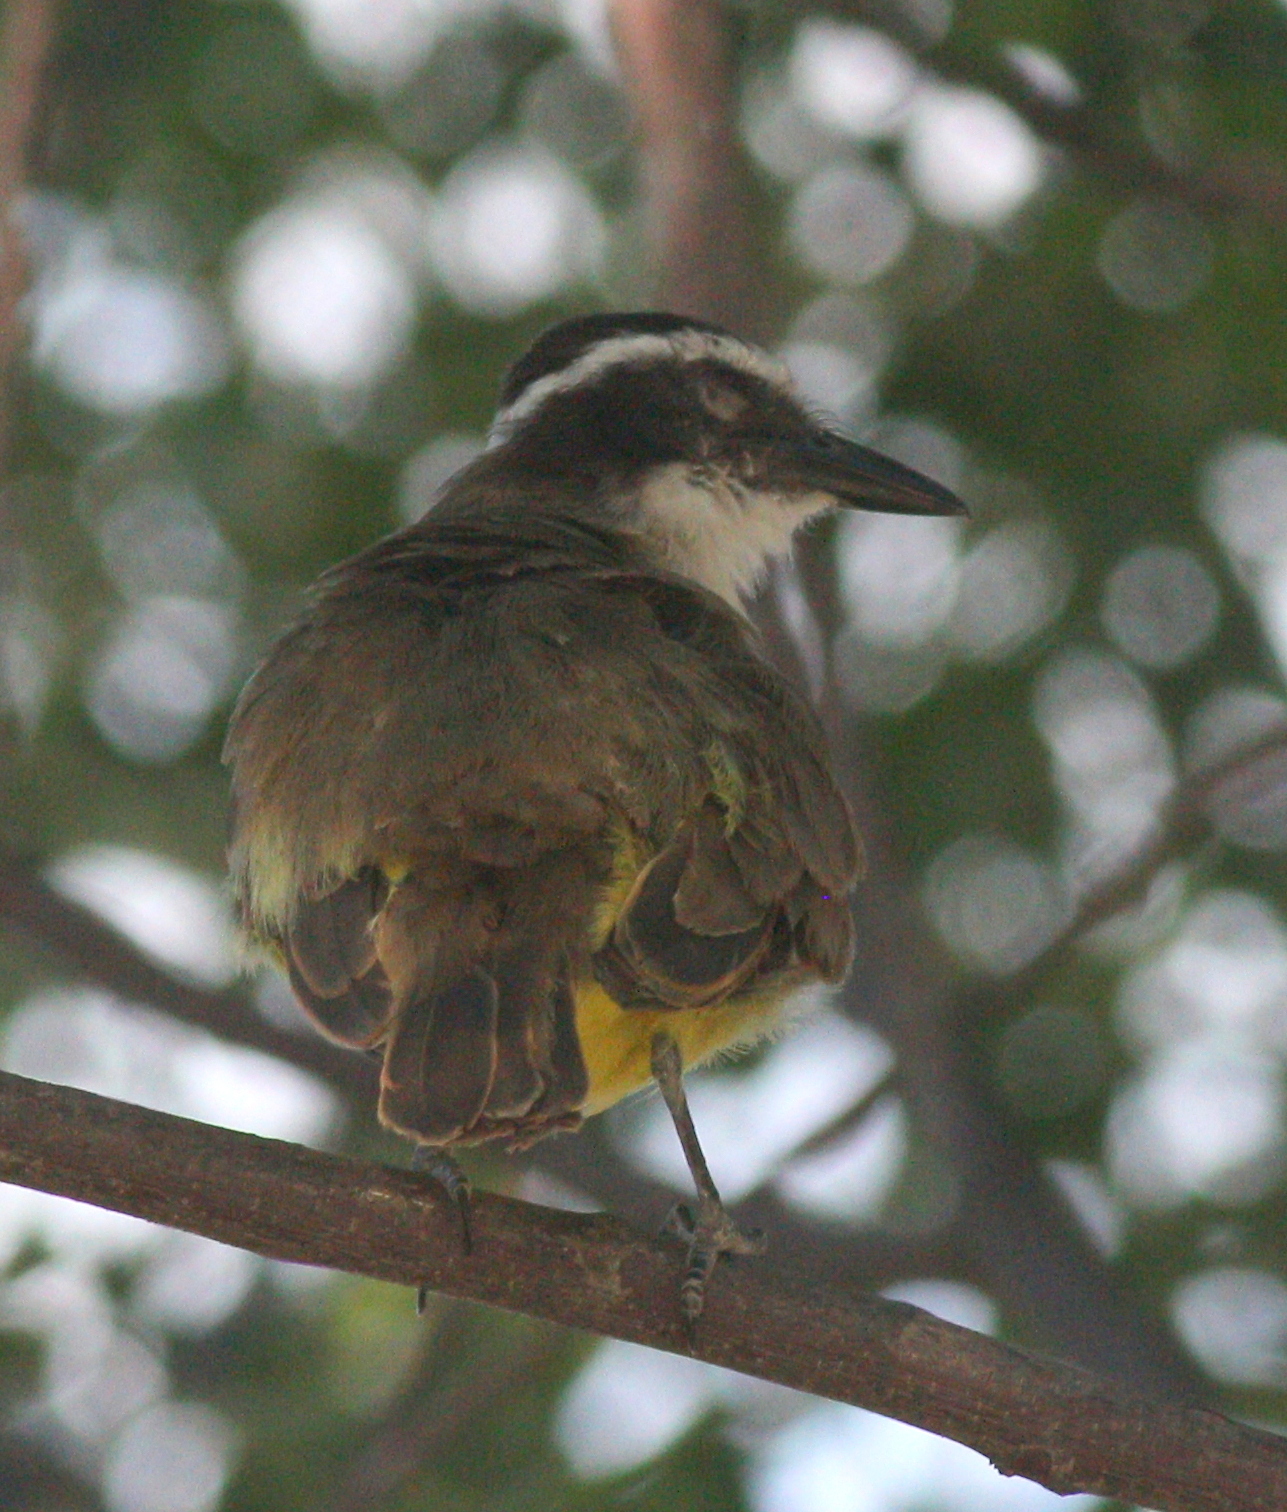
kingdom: Animalia
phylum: Chordata
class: Aves
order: Passeriformes
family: Tyrannidae
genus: Pitangus
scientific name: Pitangus sulphuratus
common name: Great kiskadee
